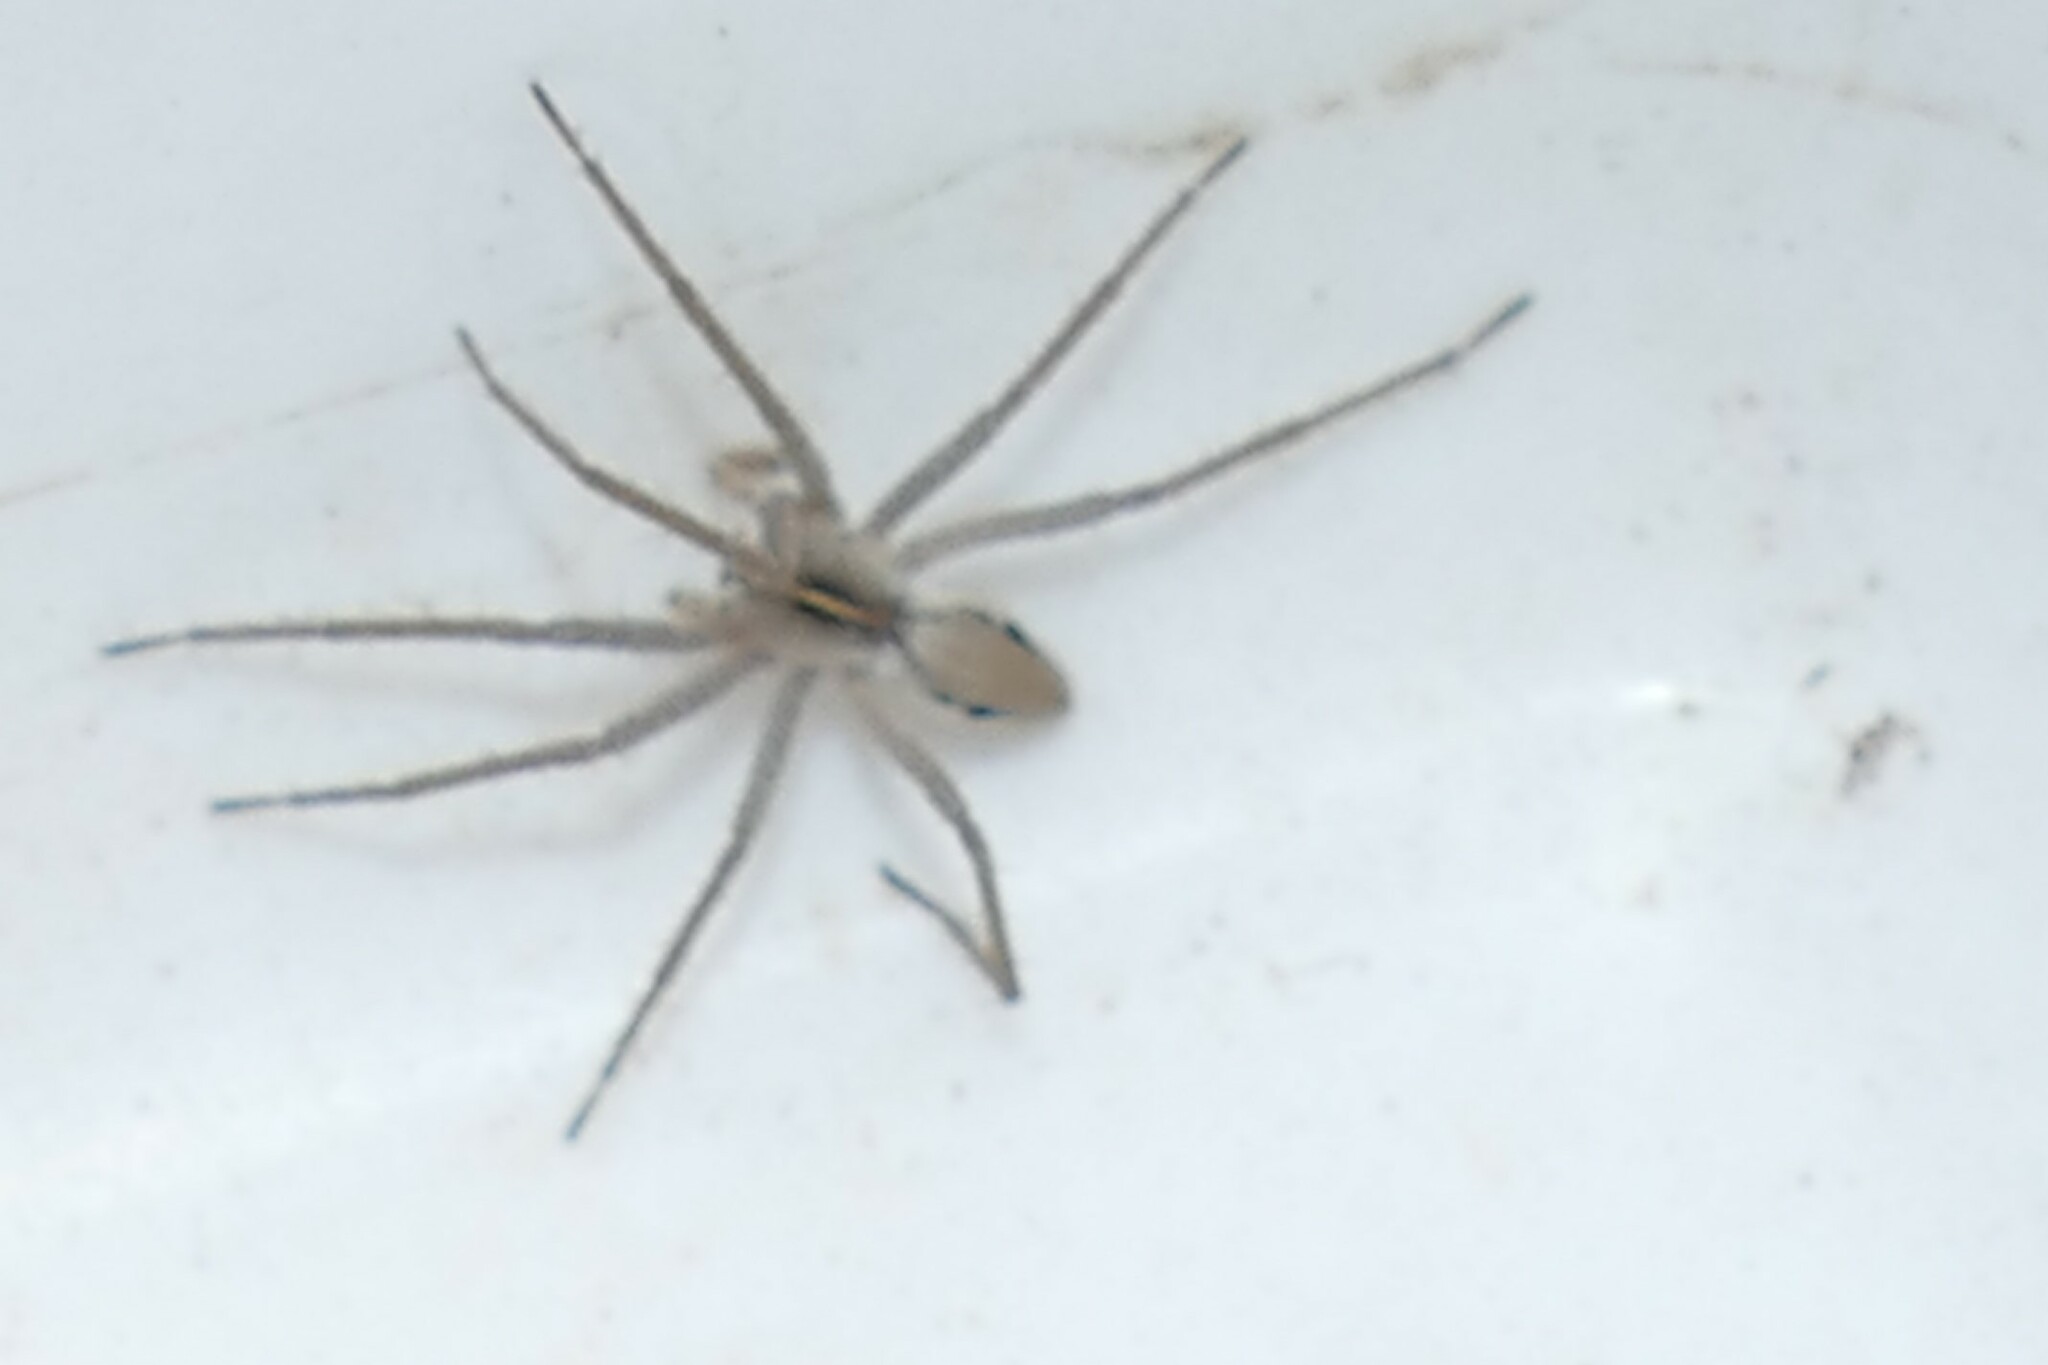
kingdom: Animalia
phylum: Arthropoda
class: Arachnida
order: Araneae
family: Pisauridae
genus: Pisaura
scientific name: Pisaura
